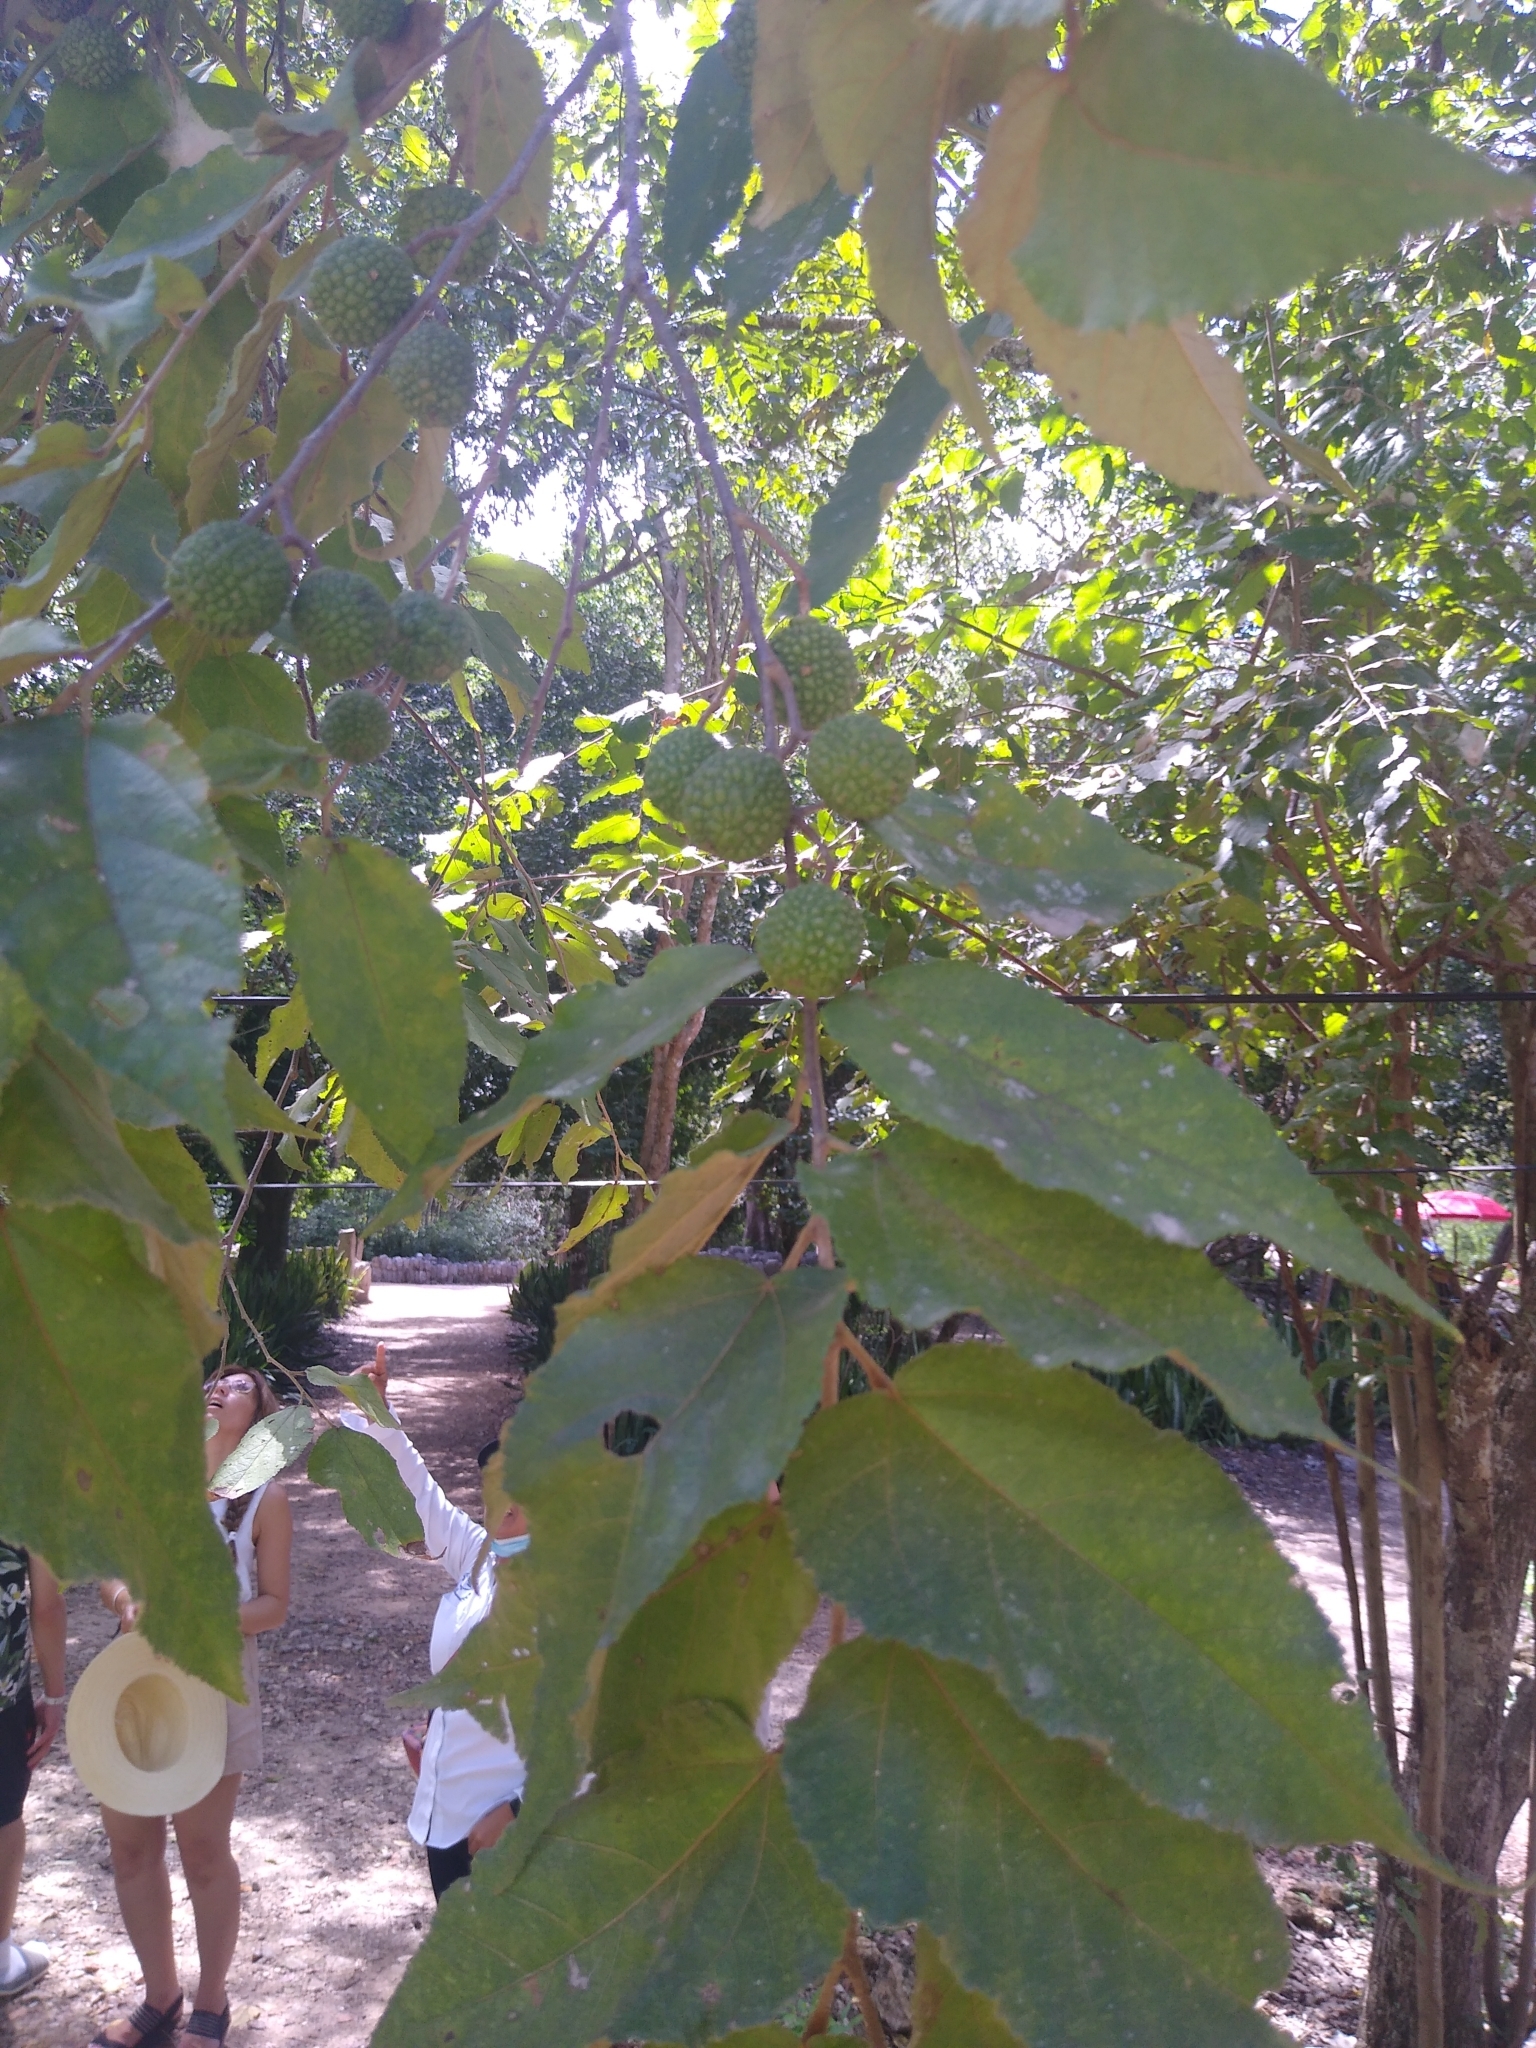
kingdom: Plantae
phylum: Tracheophyta
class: Magnoliopsida
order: Malvales
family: Malvaceae
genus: Guazuma
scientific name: Guazuma ulmifolia
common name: Bastard-cedar
